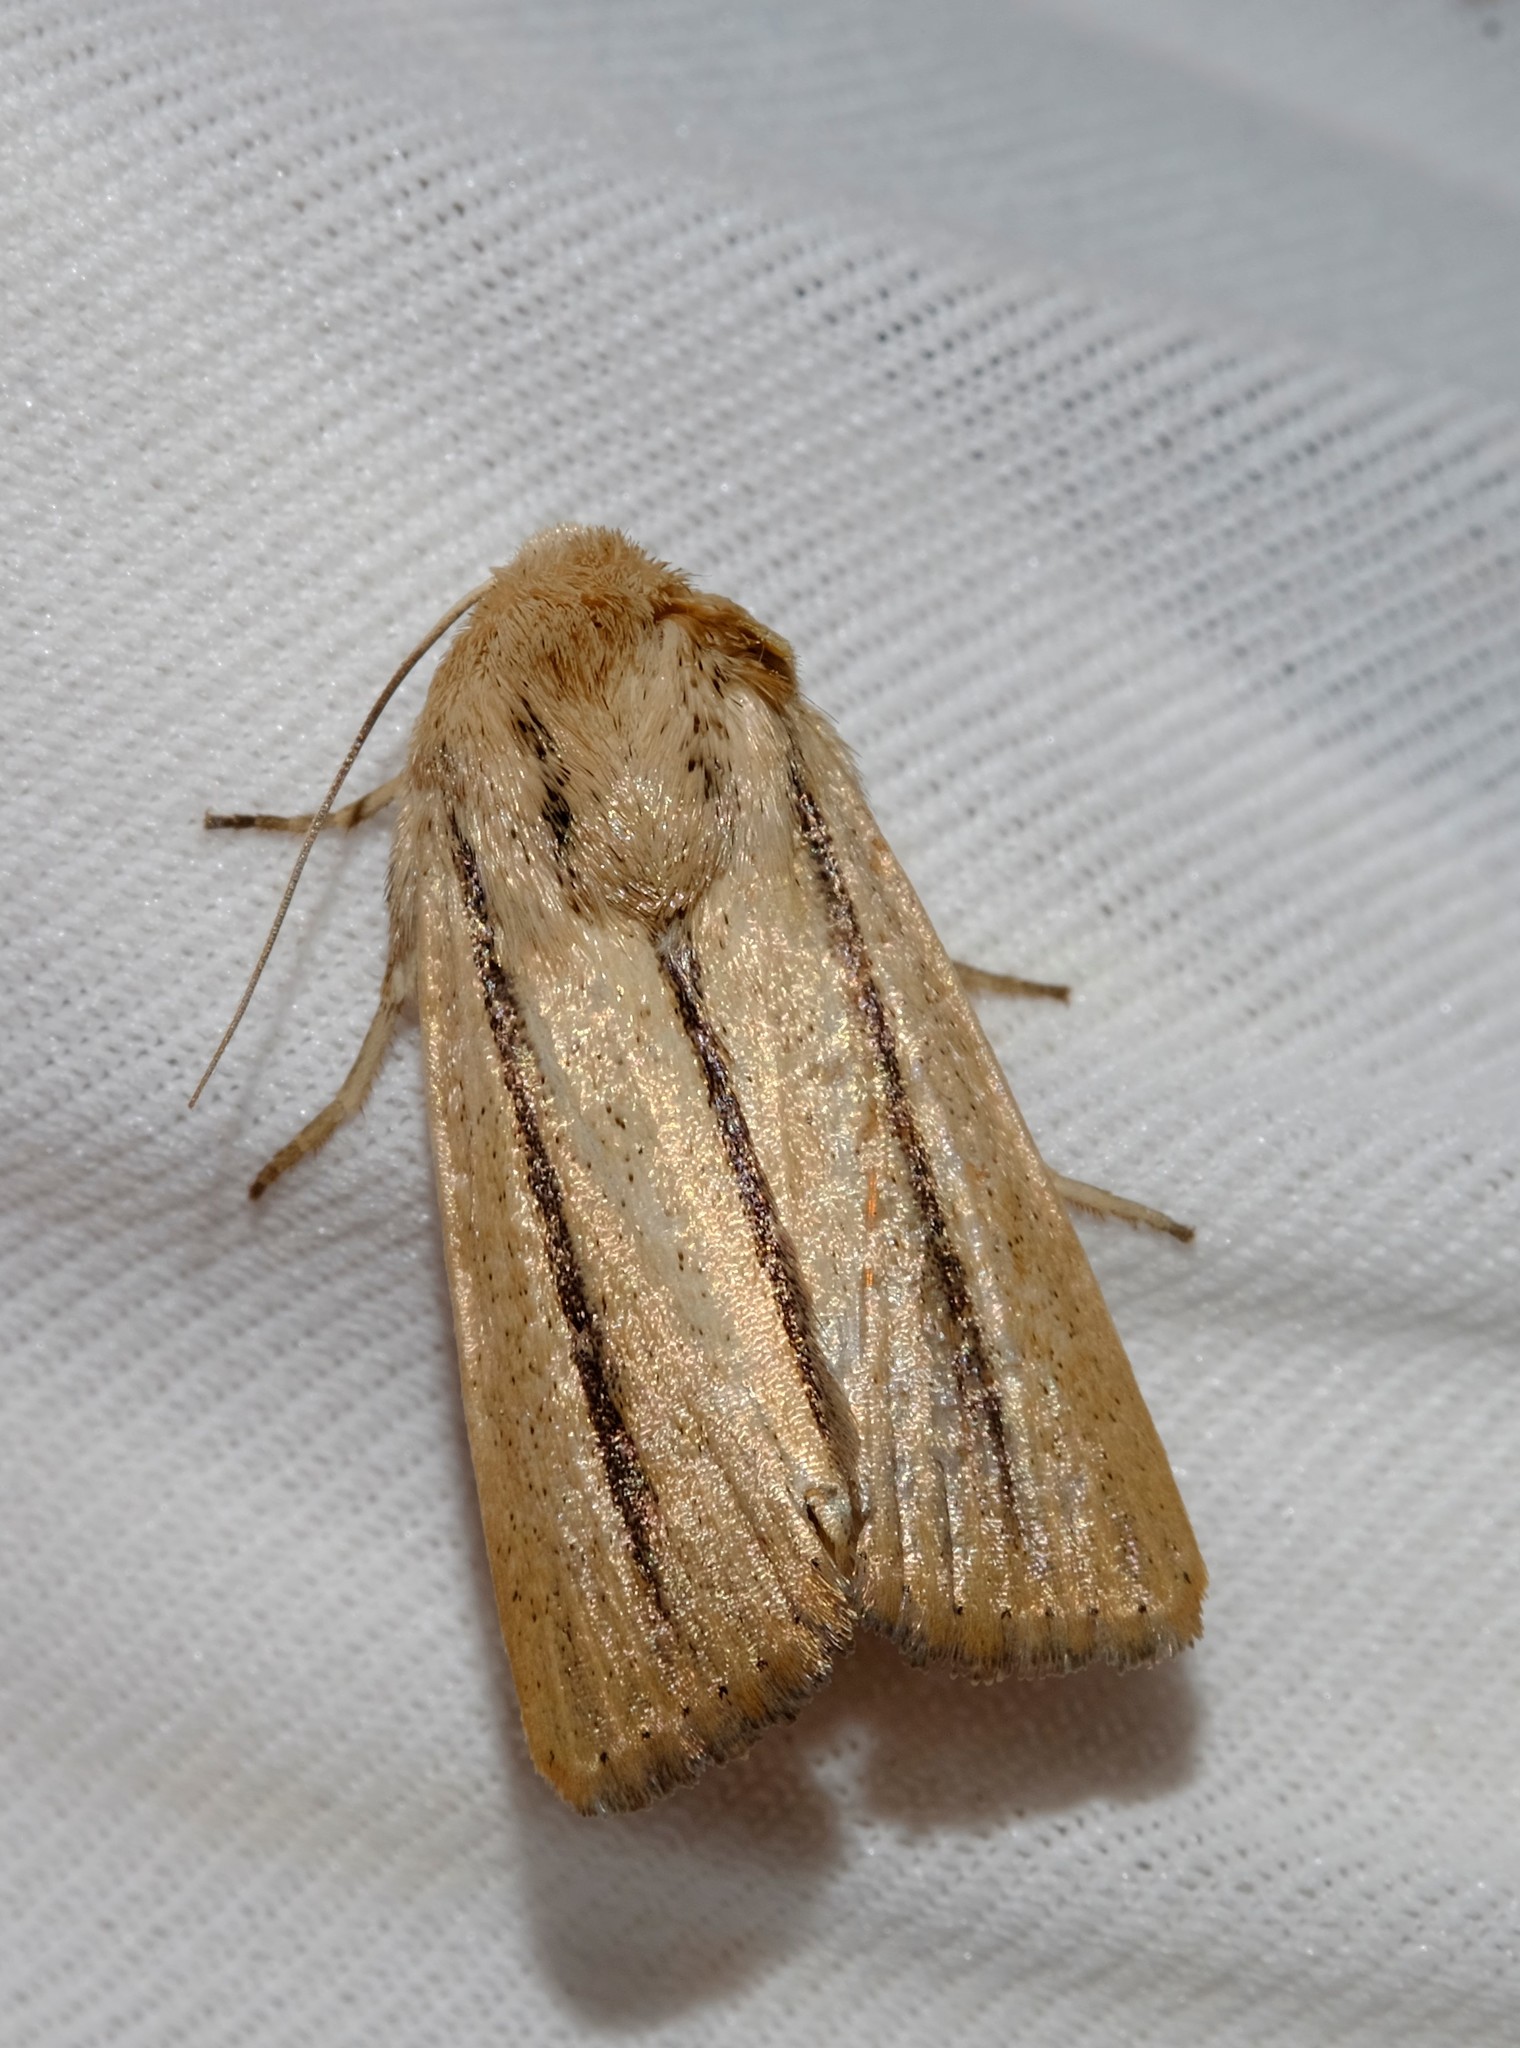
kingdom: Animalia
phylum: Arthropoda
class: Insecta
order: Lepidoptera
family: Noctuidae
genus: Leucania
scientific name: Leucania diatrecta
